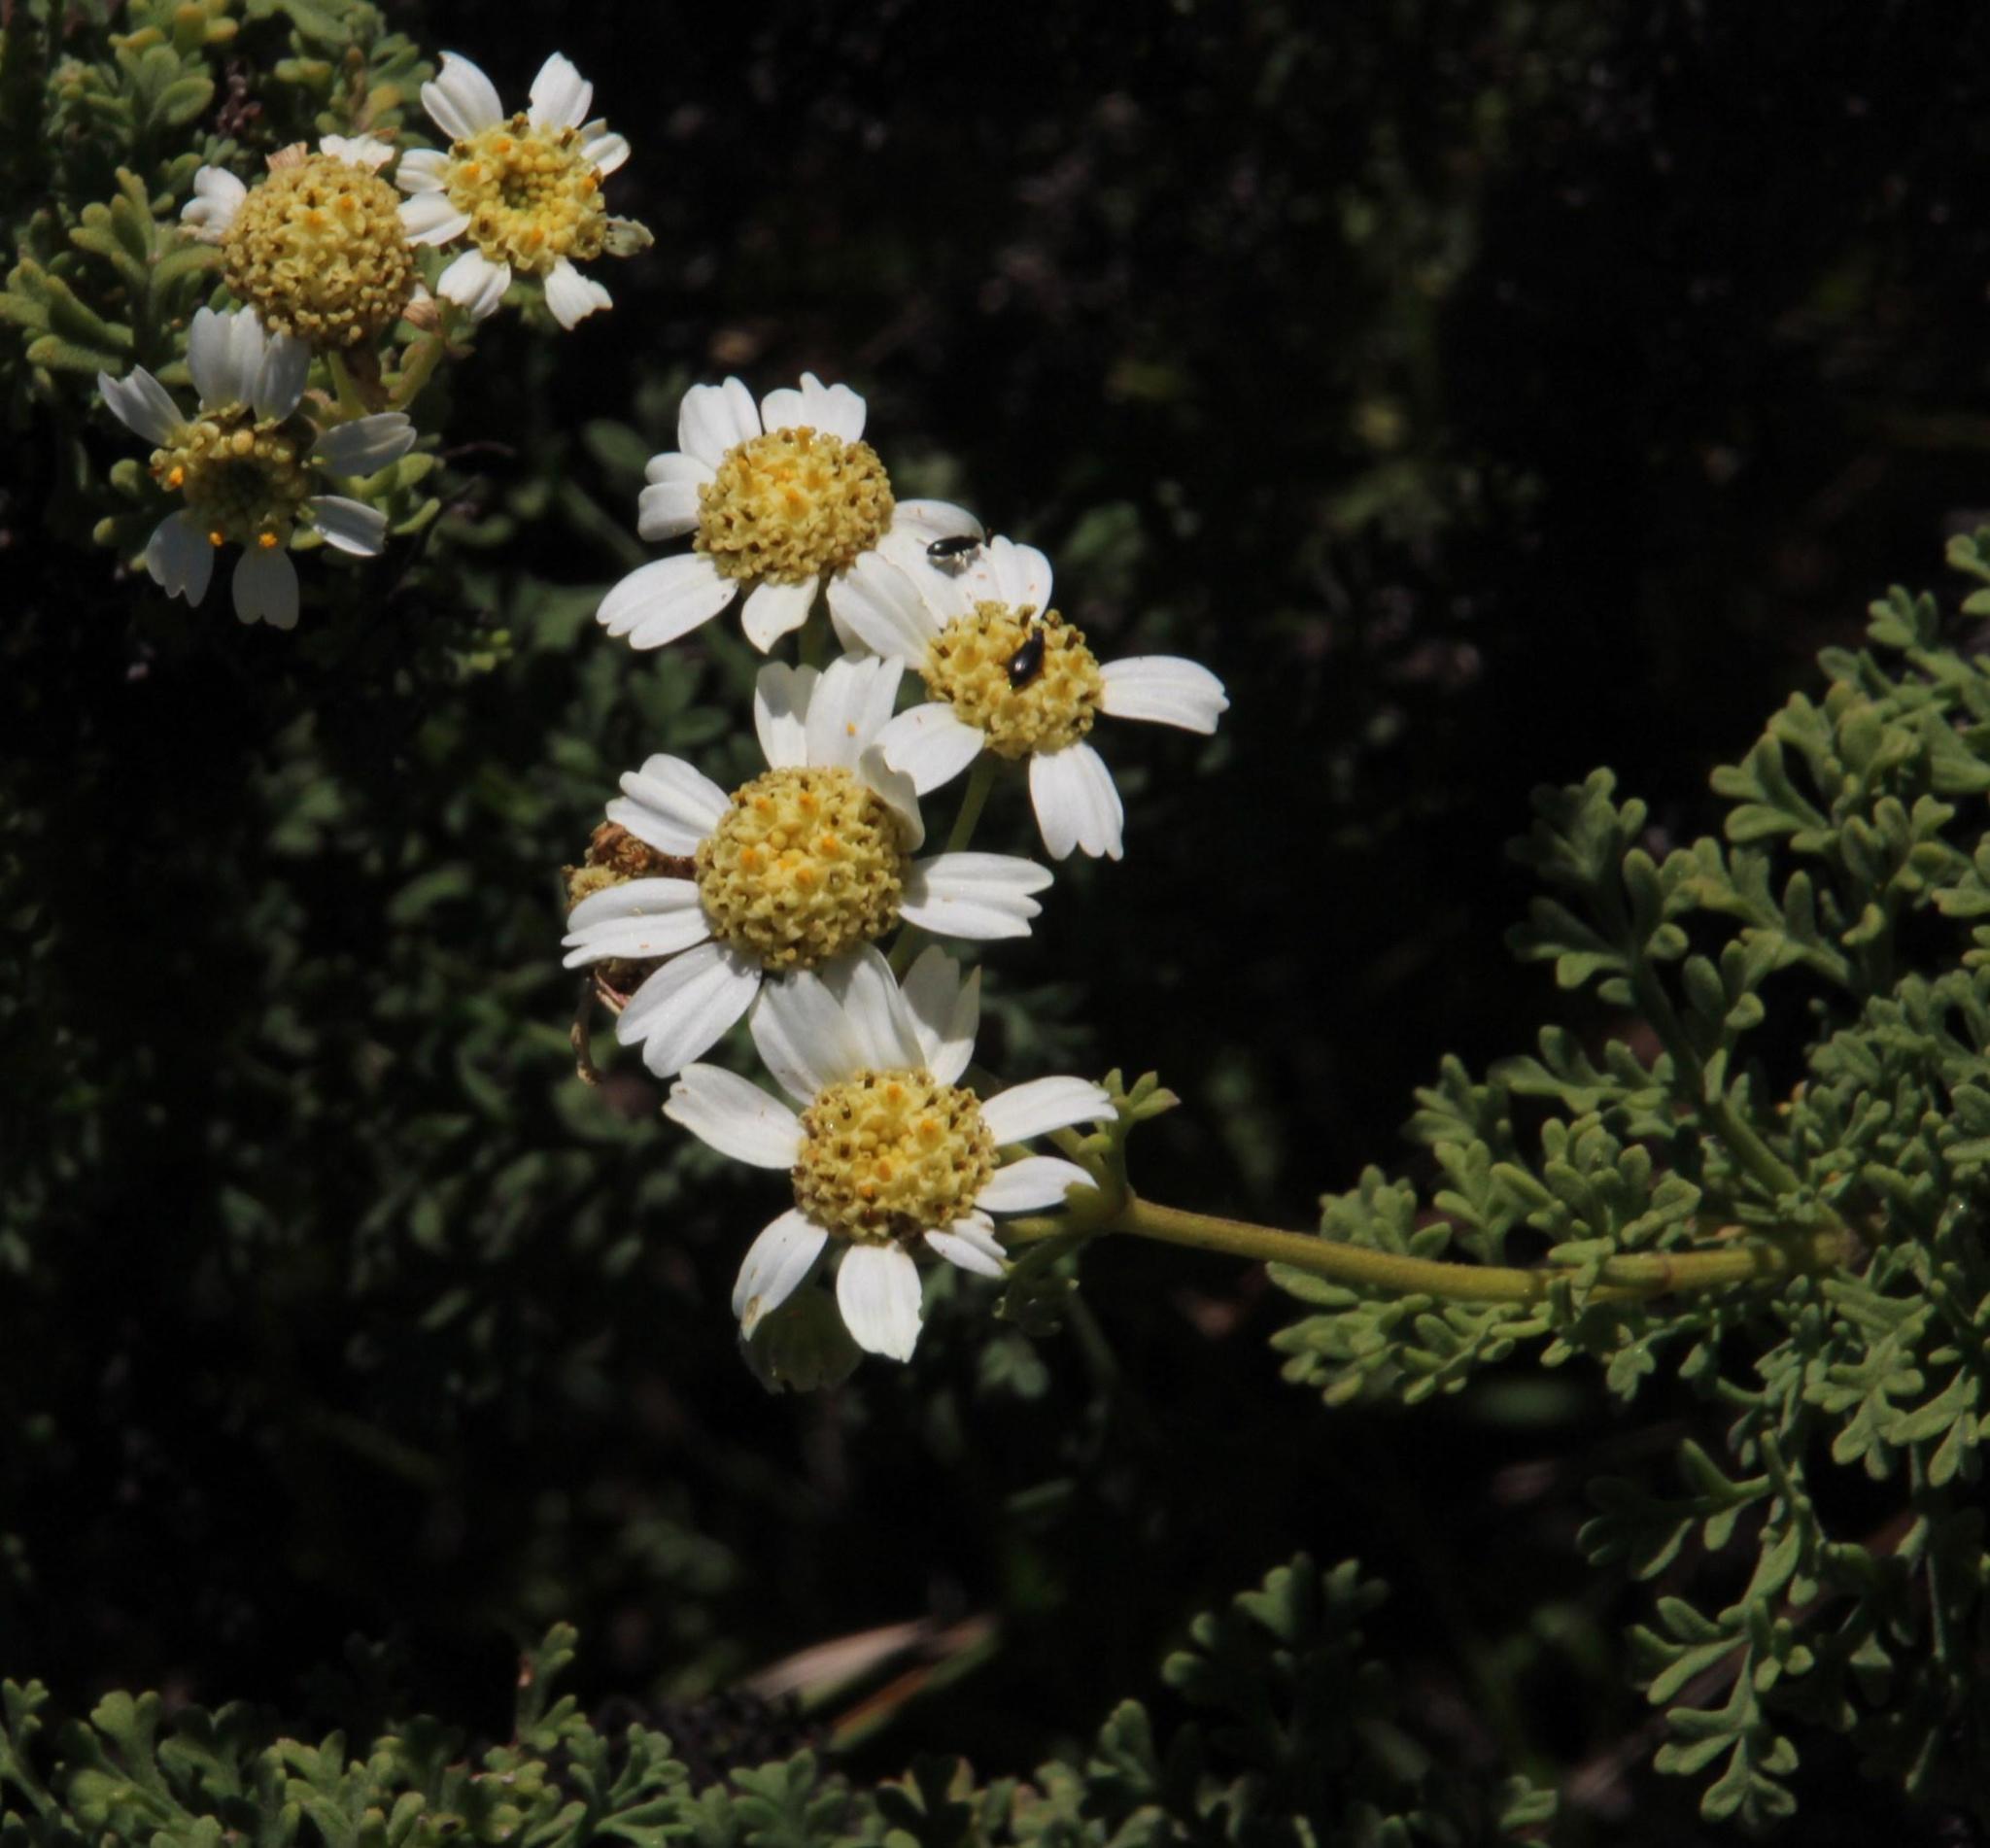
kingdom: Plantae
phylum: Tracheophyta
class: Magnoliopsida
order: Asterales
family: Asteraceae
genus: Bahia
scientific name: Bahia ambrosioides
